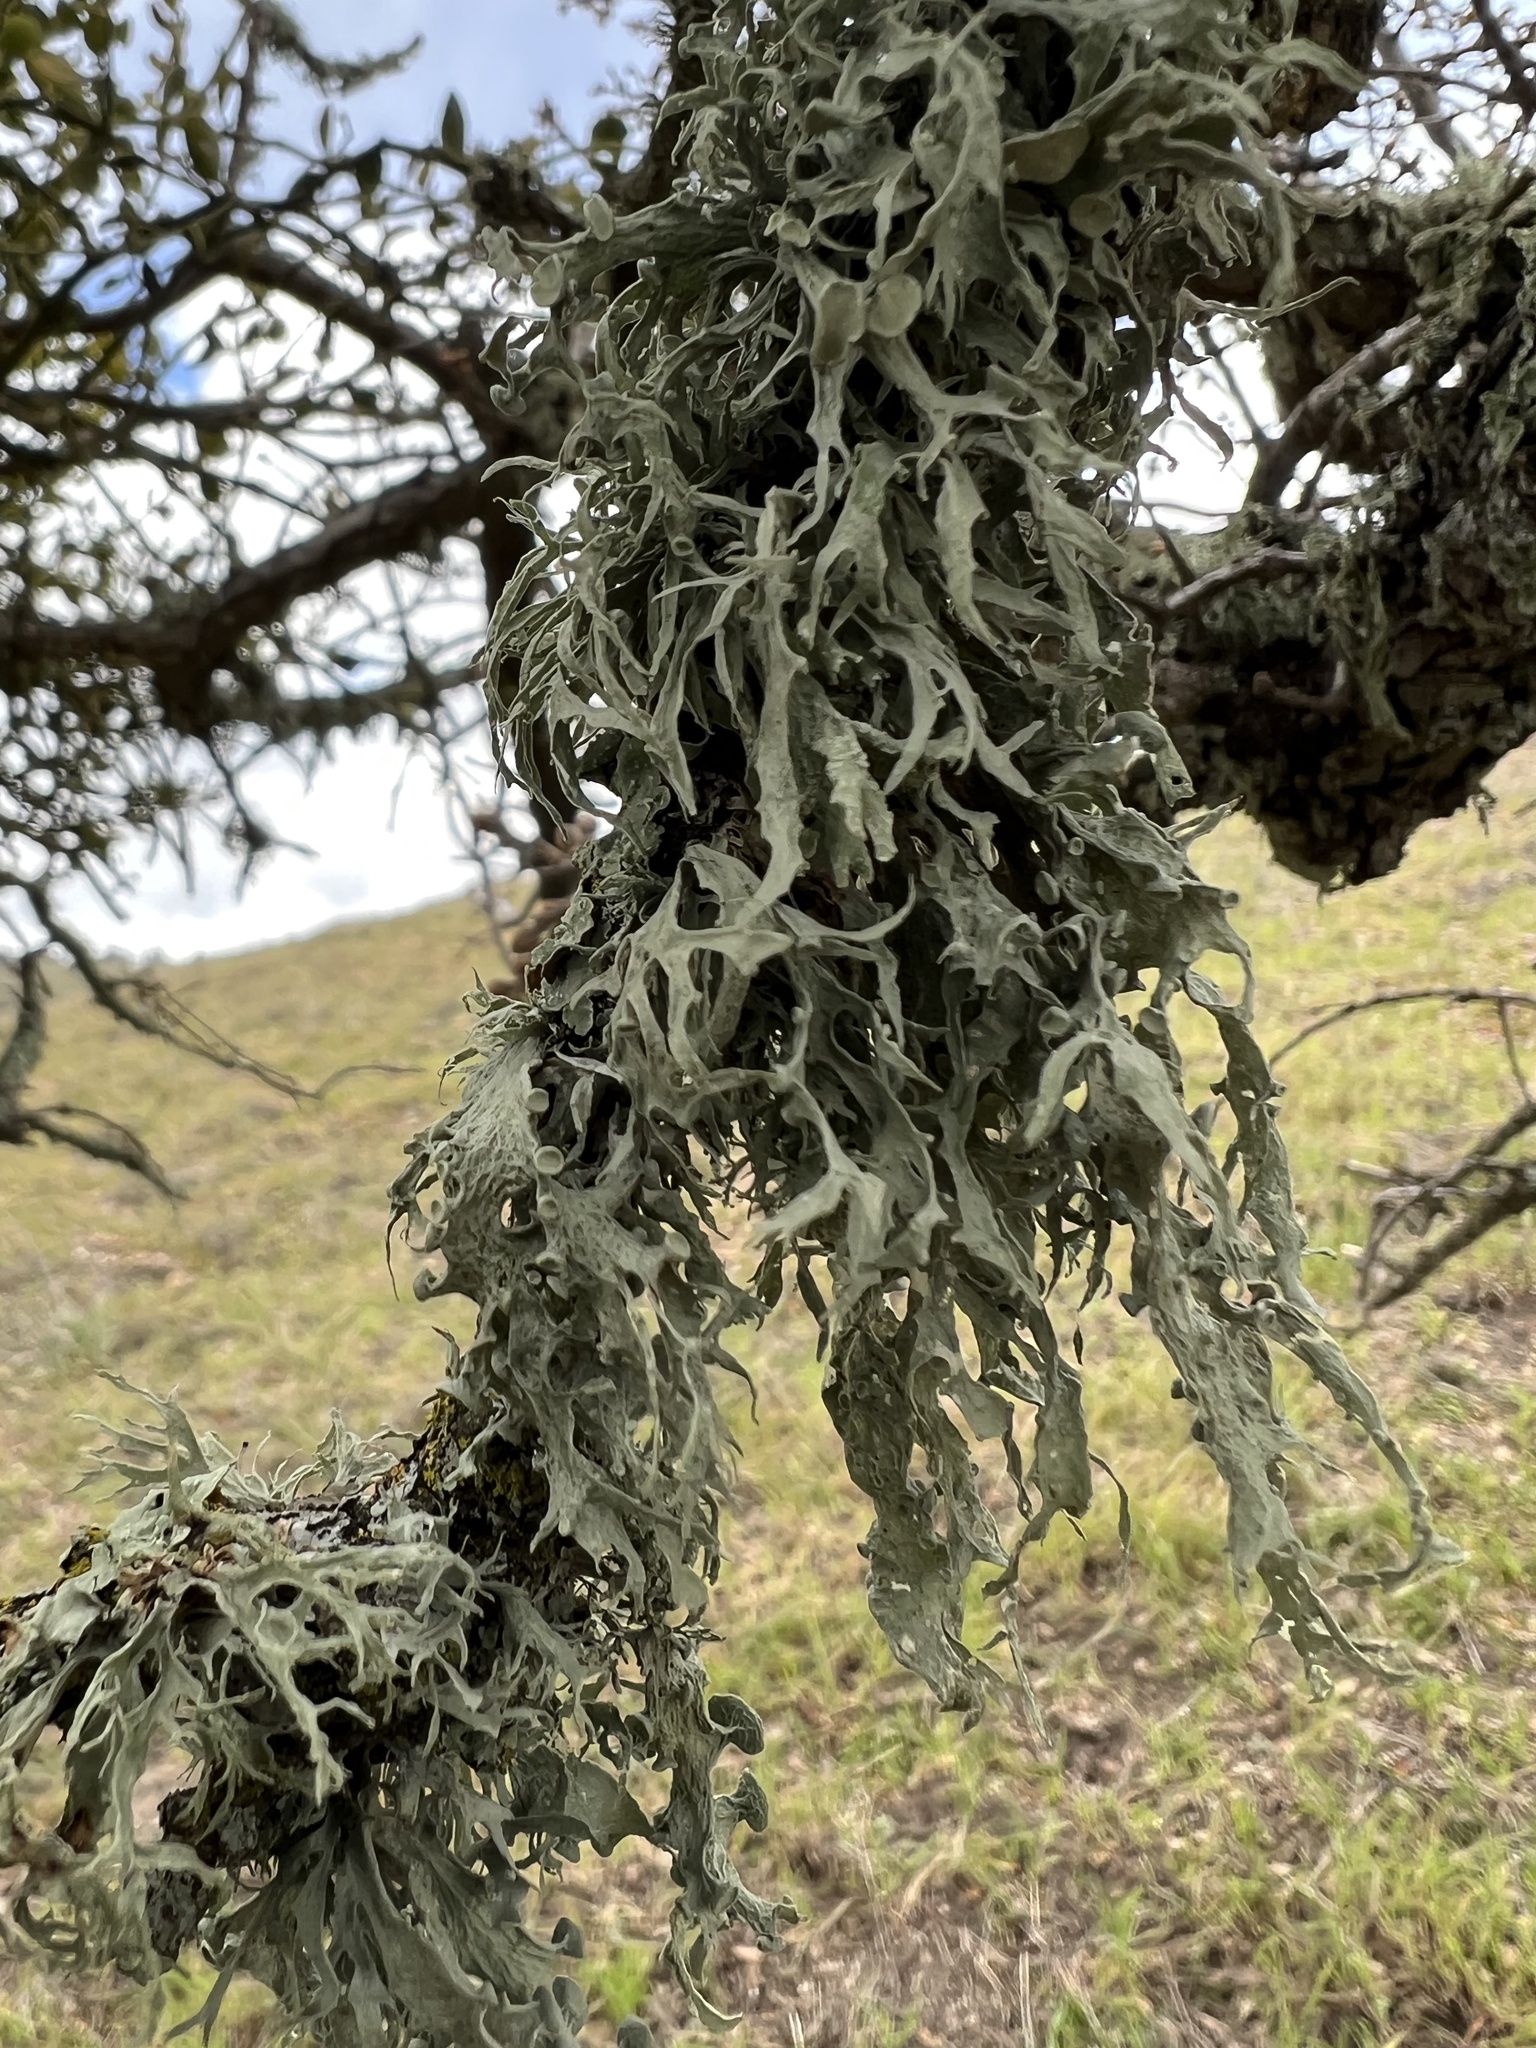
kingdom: Fungi
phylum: Ascomycota
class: Lecanoromycetes
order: Lecanorales
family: Ramalinaceae
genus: Ramalina
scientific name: Ramalina leptocarpha
